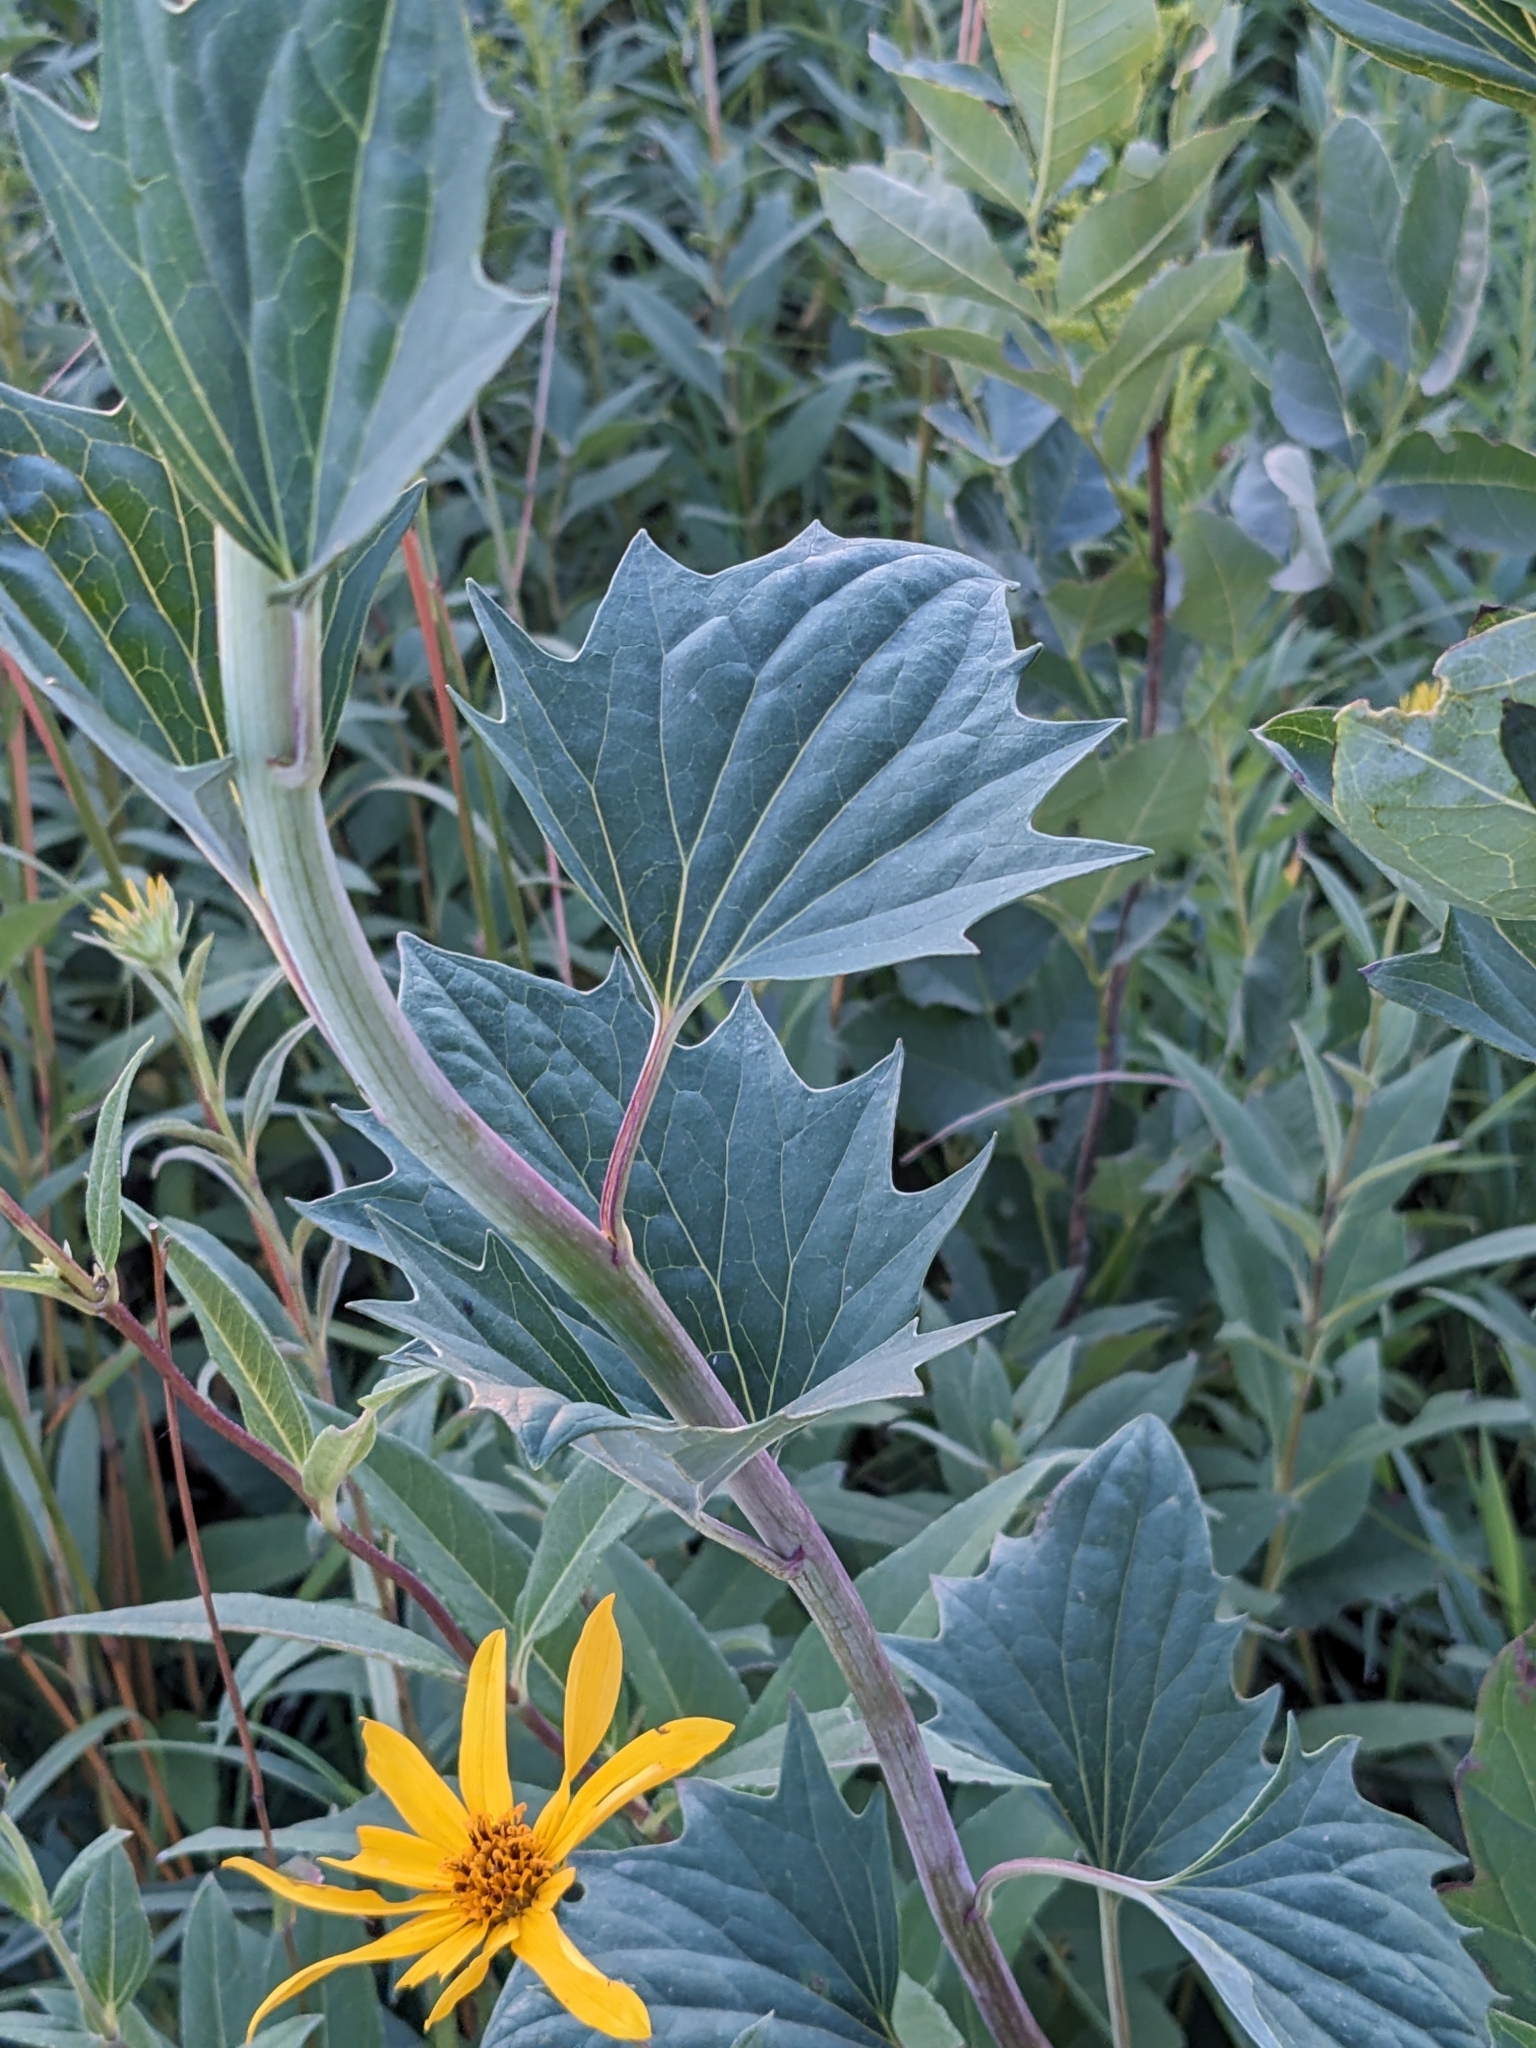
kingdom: Plantae
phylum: Tracheophyta
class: Magnoliopsida
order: Asterales
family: Asteraceae
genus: Arnoglossum
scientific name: Arnoglossum atriplicifolium
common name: Pale indian-plantain
